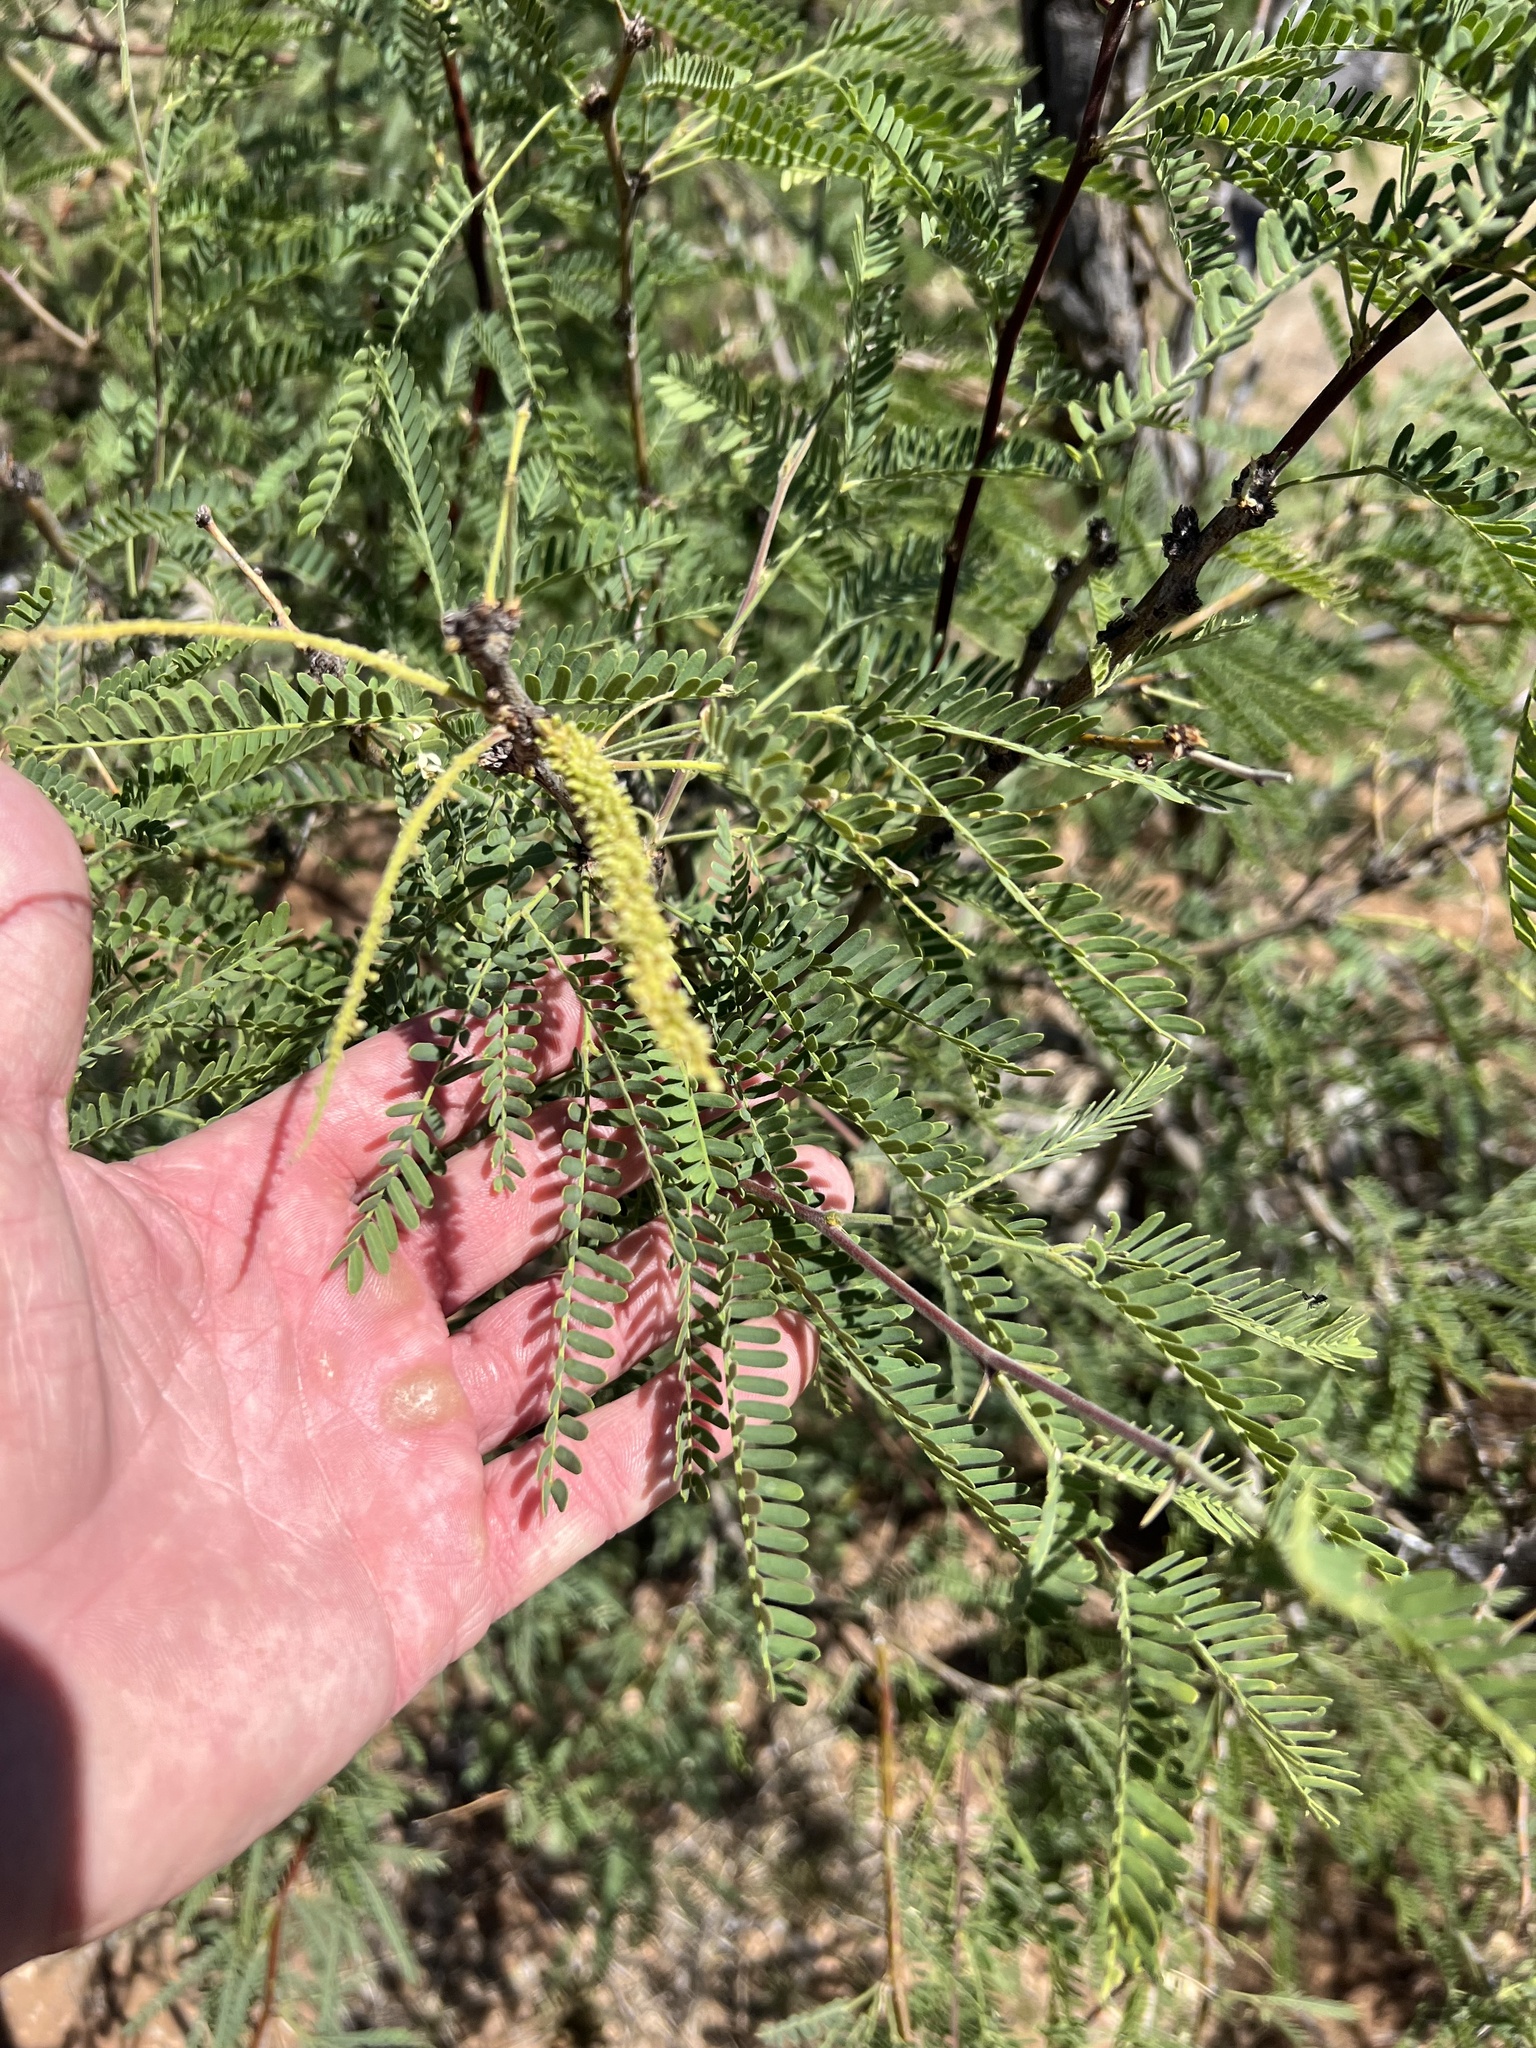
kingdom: Plantae
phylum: Tracheophyta
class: Magnoliopsida
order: Fabales
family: Fabaceae
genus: Prosopis
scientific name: Prosopis velutina
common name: Velvet mesquite
